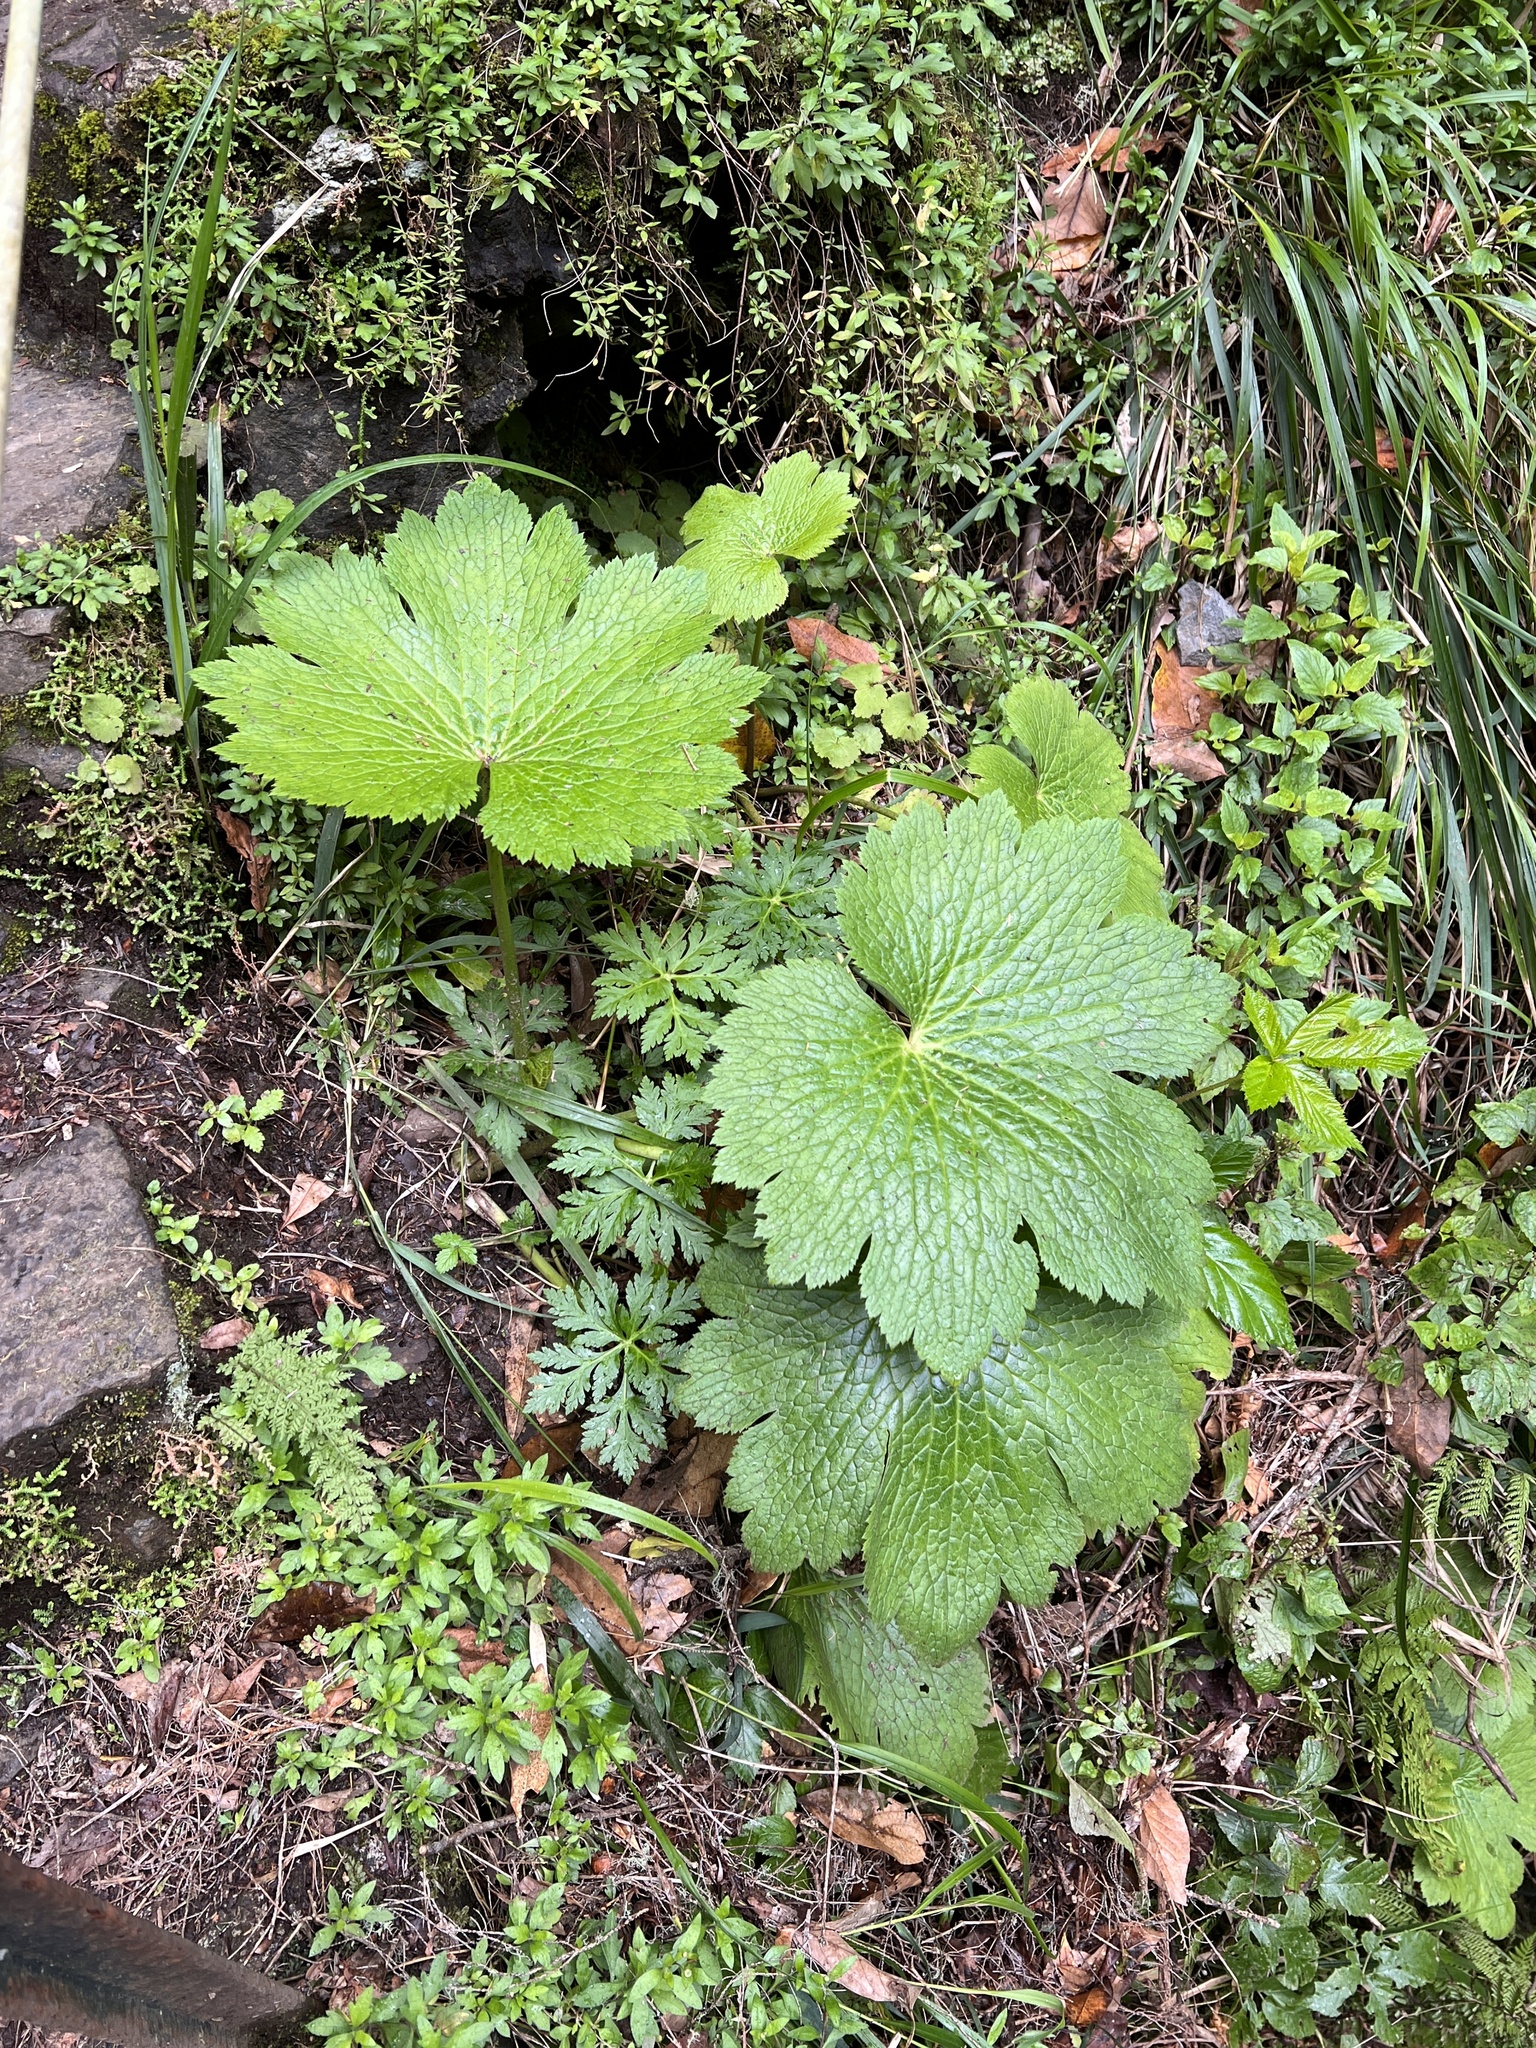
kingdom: Plantae
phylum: Tracheophyta
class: Magnoliopsida
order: Ranunculales
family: Ranunculaceae
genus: Ranunculus
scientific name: Ranunculus cortusifolius
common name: Azores buttercup
